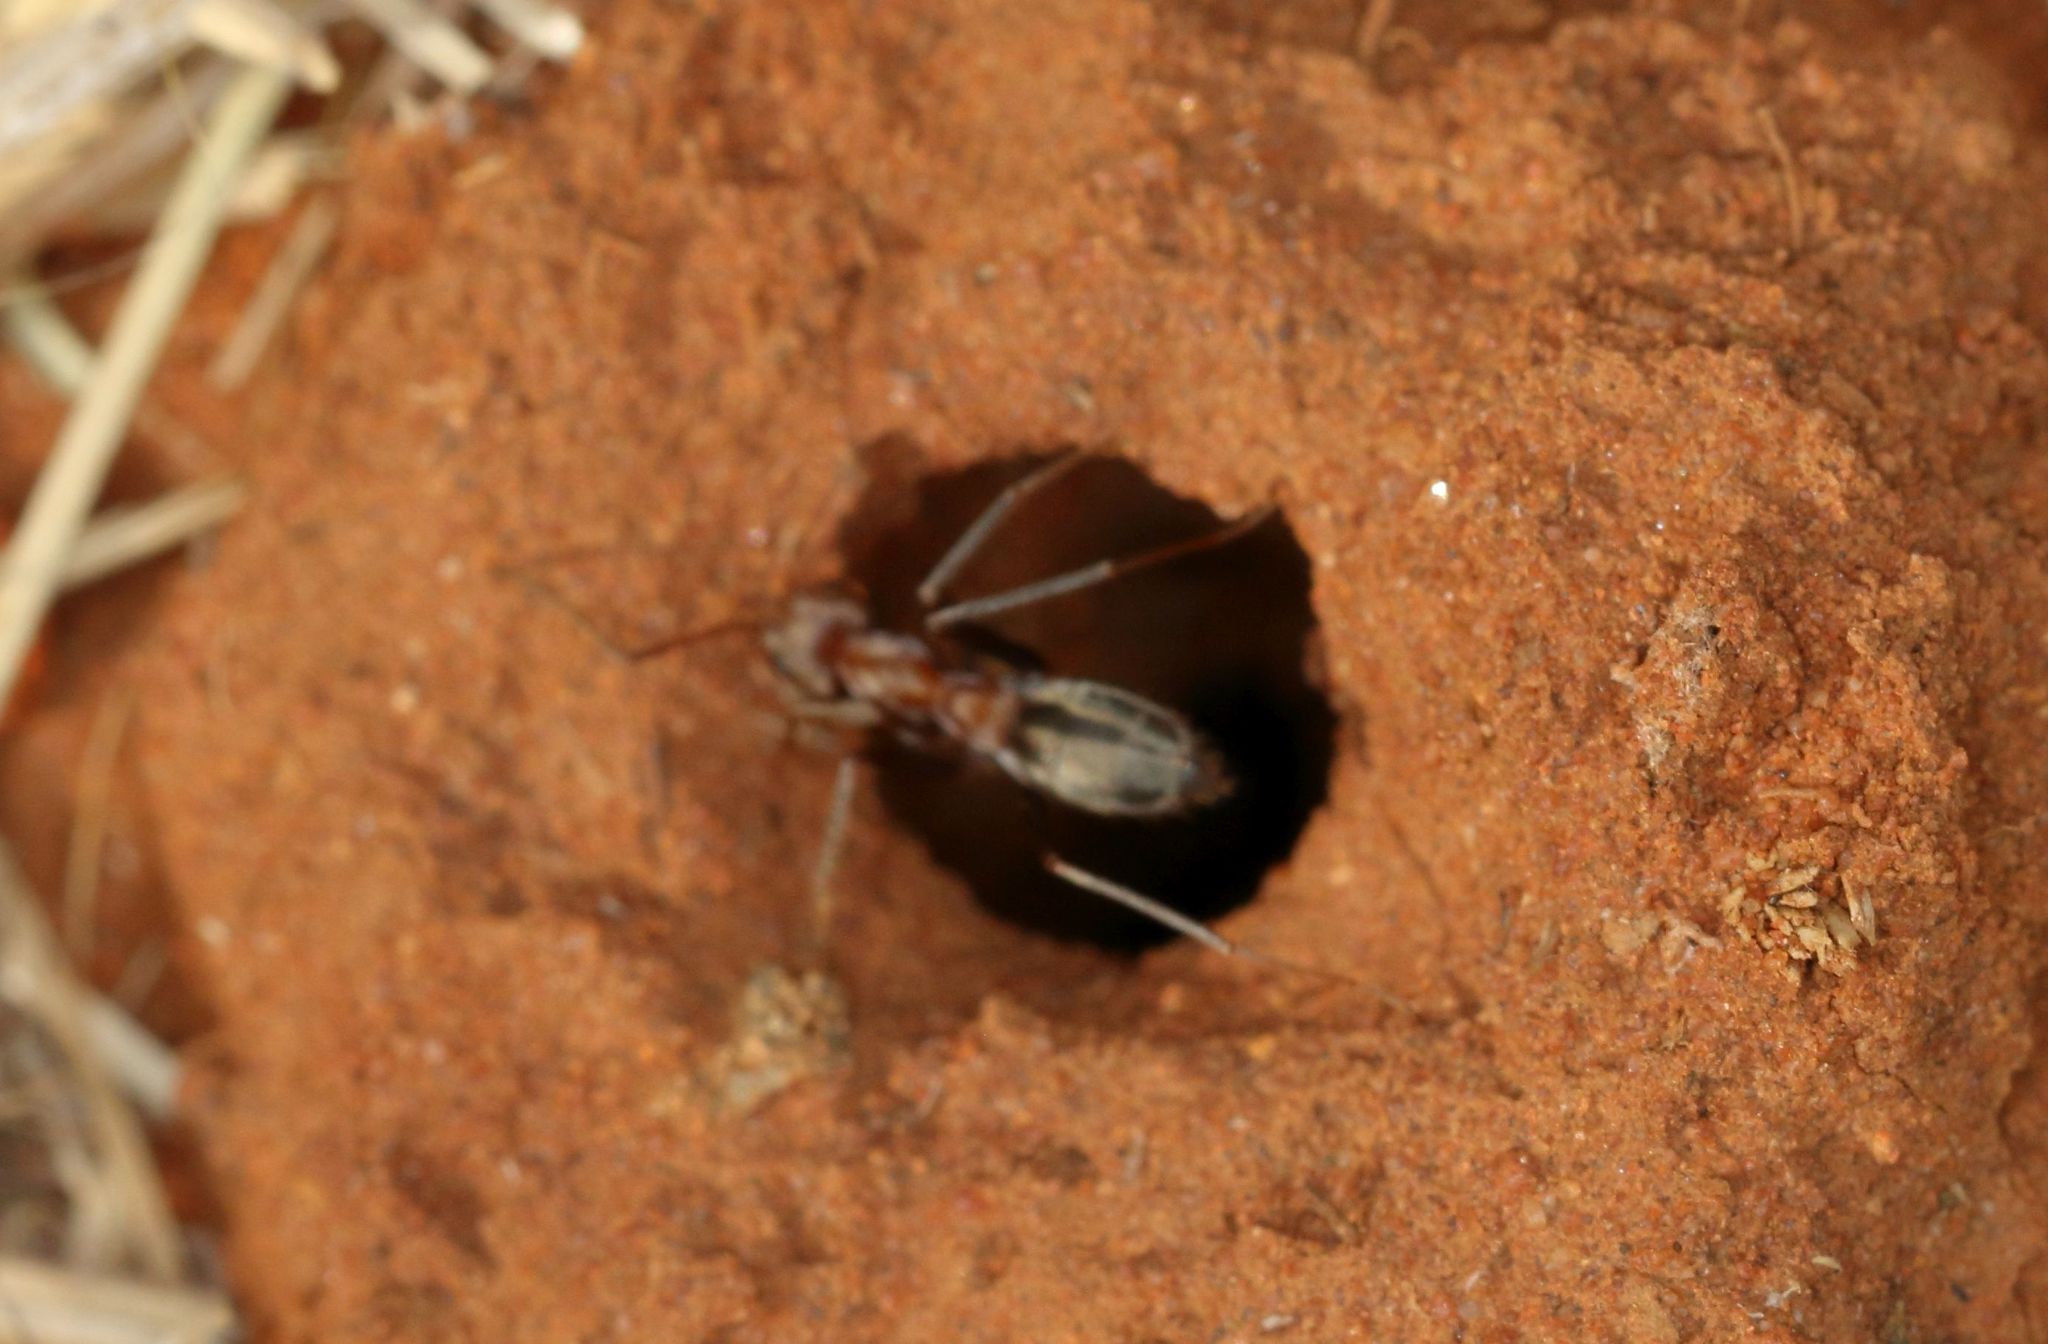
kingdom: Animalia
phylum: Arthropoda
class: Insecta
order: Hymenoptera
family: Formicidae
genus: Anoplolepis
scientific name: Anoplolepis custodiens
